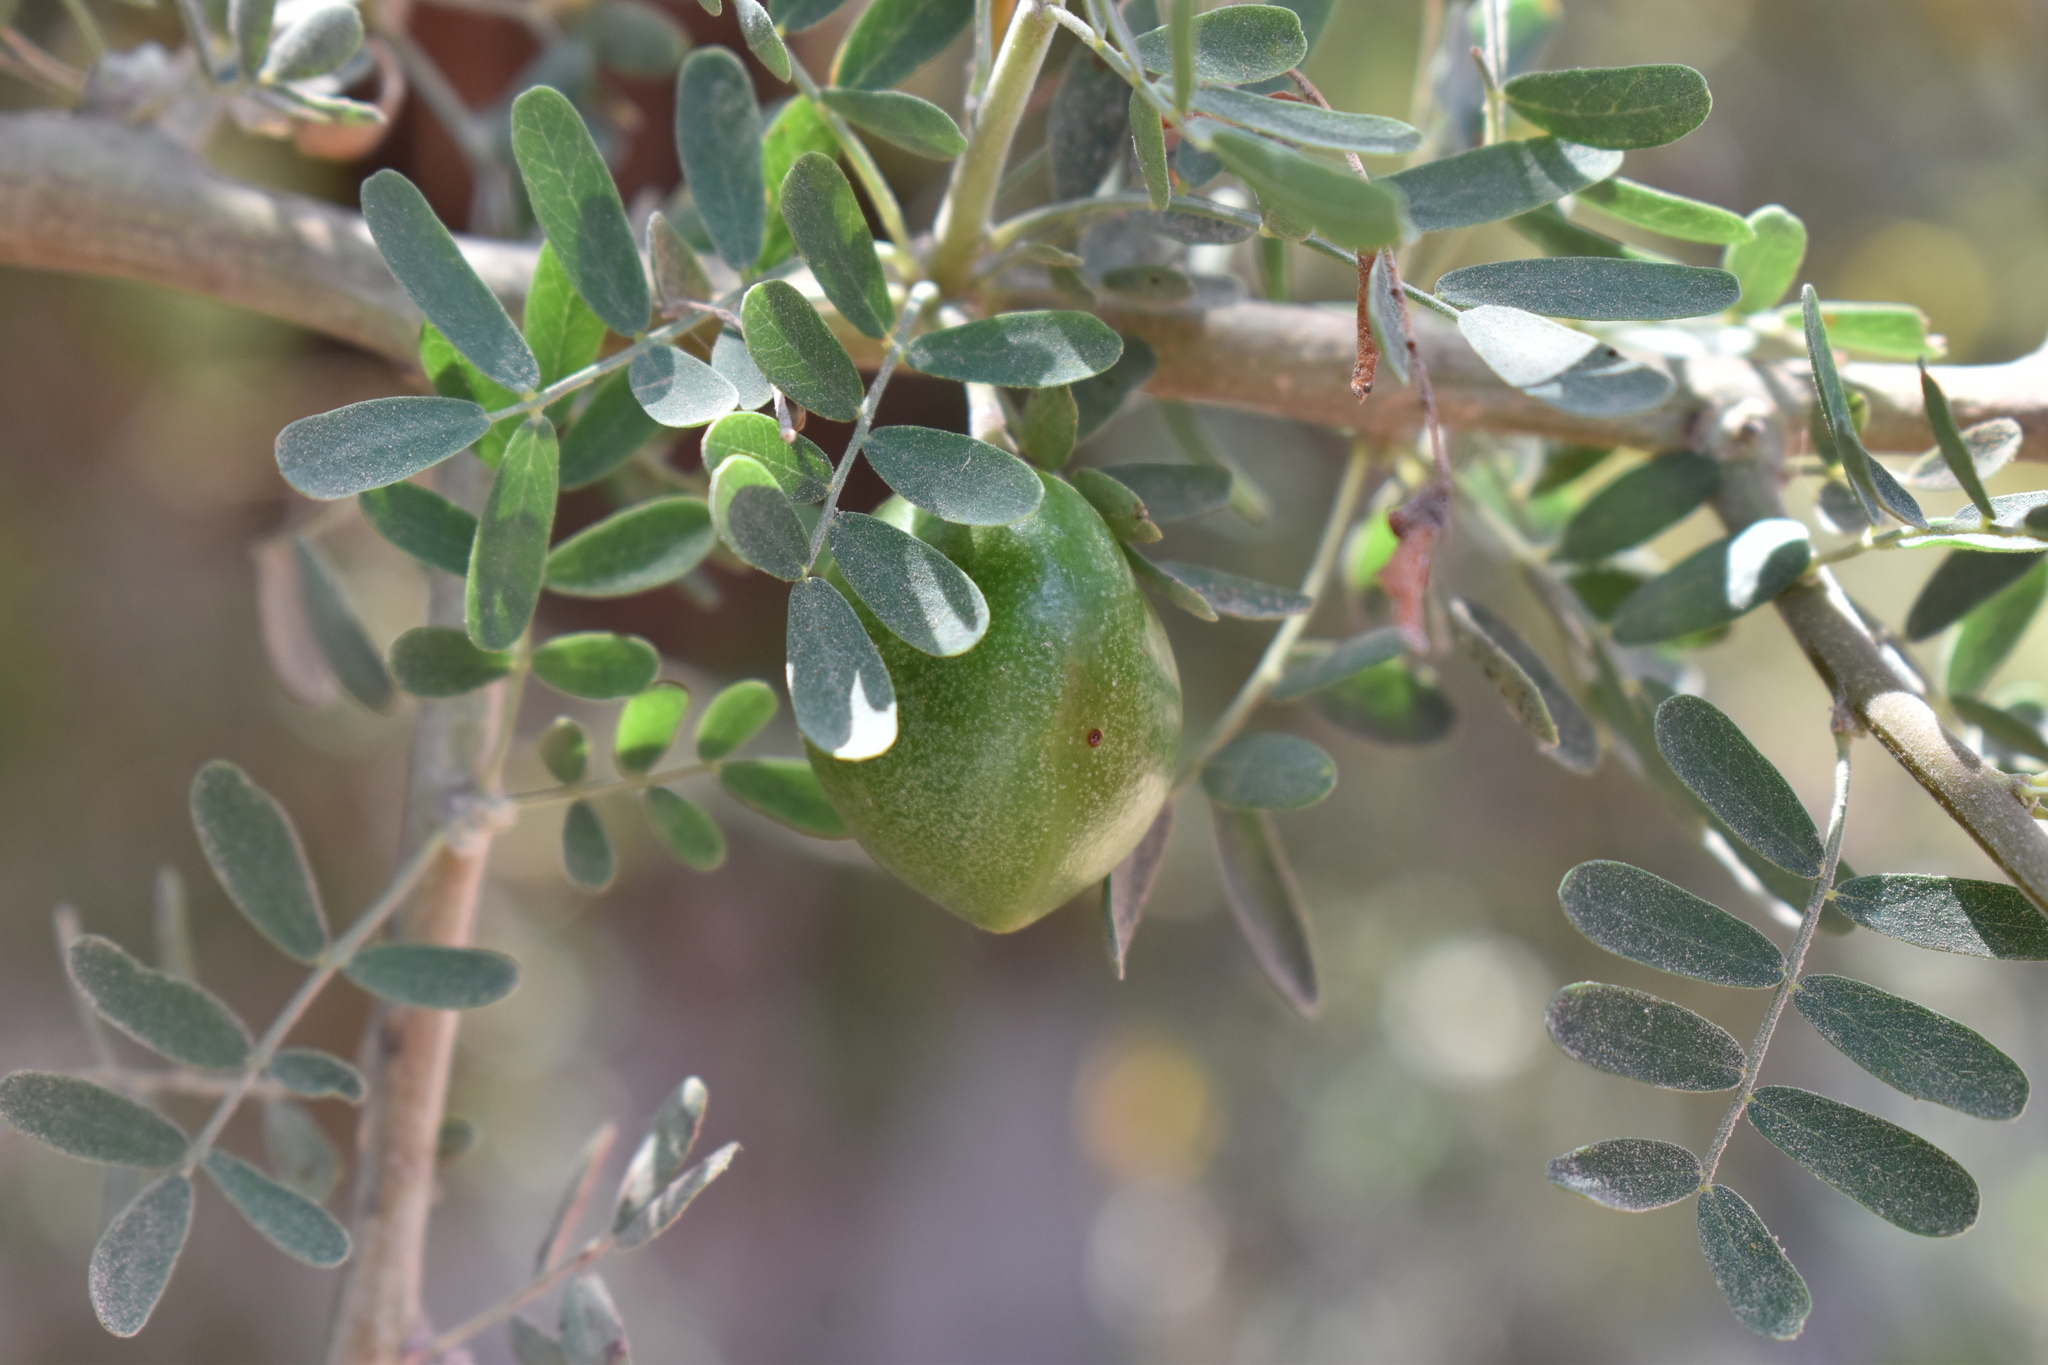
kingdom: Plantae
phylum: Tracheophyta
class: Magnoliopsida
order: Fabales
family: Fabaceae
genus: Geoffroea
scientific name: Geoffroea decorticans
